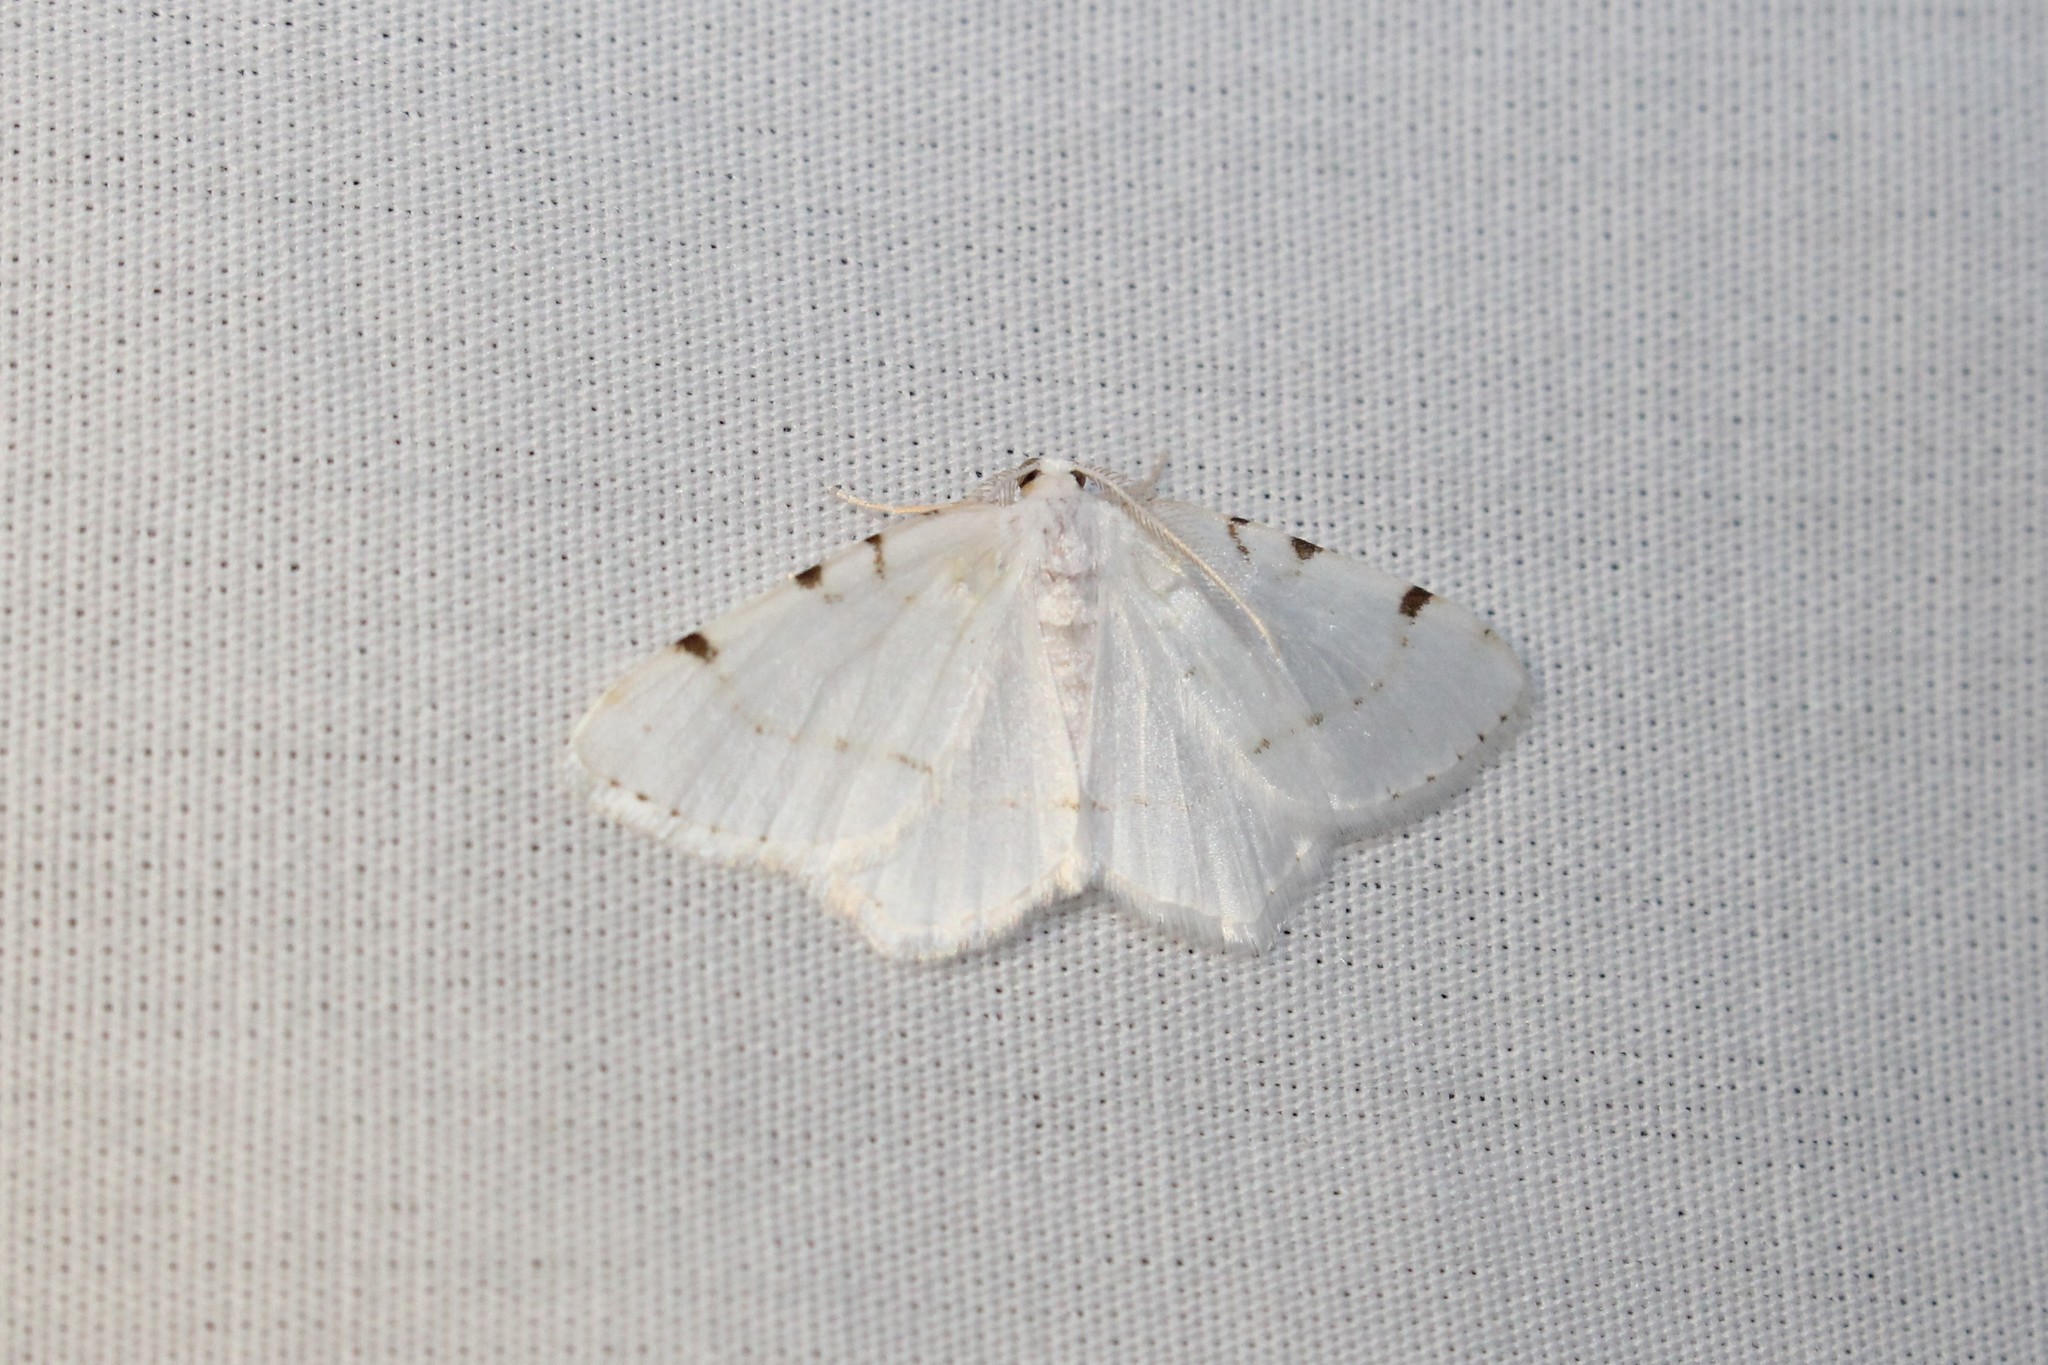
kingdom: Animalia
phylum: Arthropoda
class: Insecta
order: Lepidoptera
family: Geometridae
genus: Macaria
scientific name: Macaria pustularia
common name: Lesser maple spanworm moth
